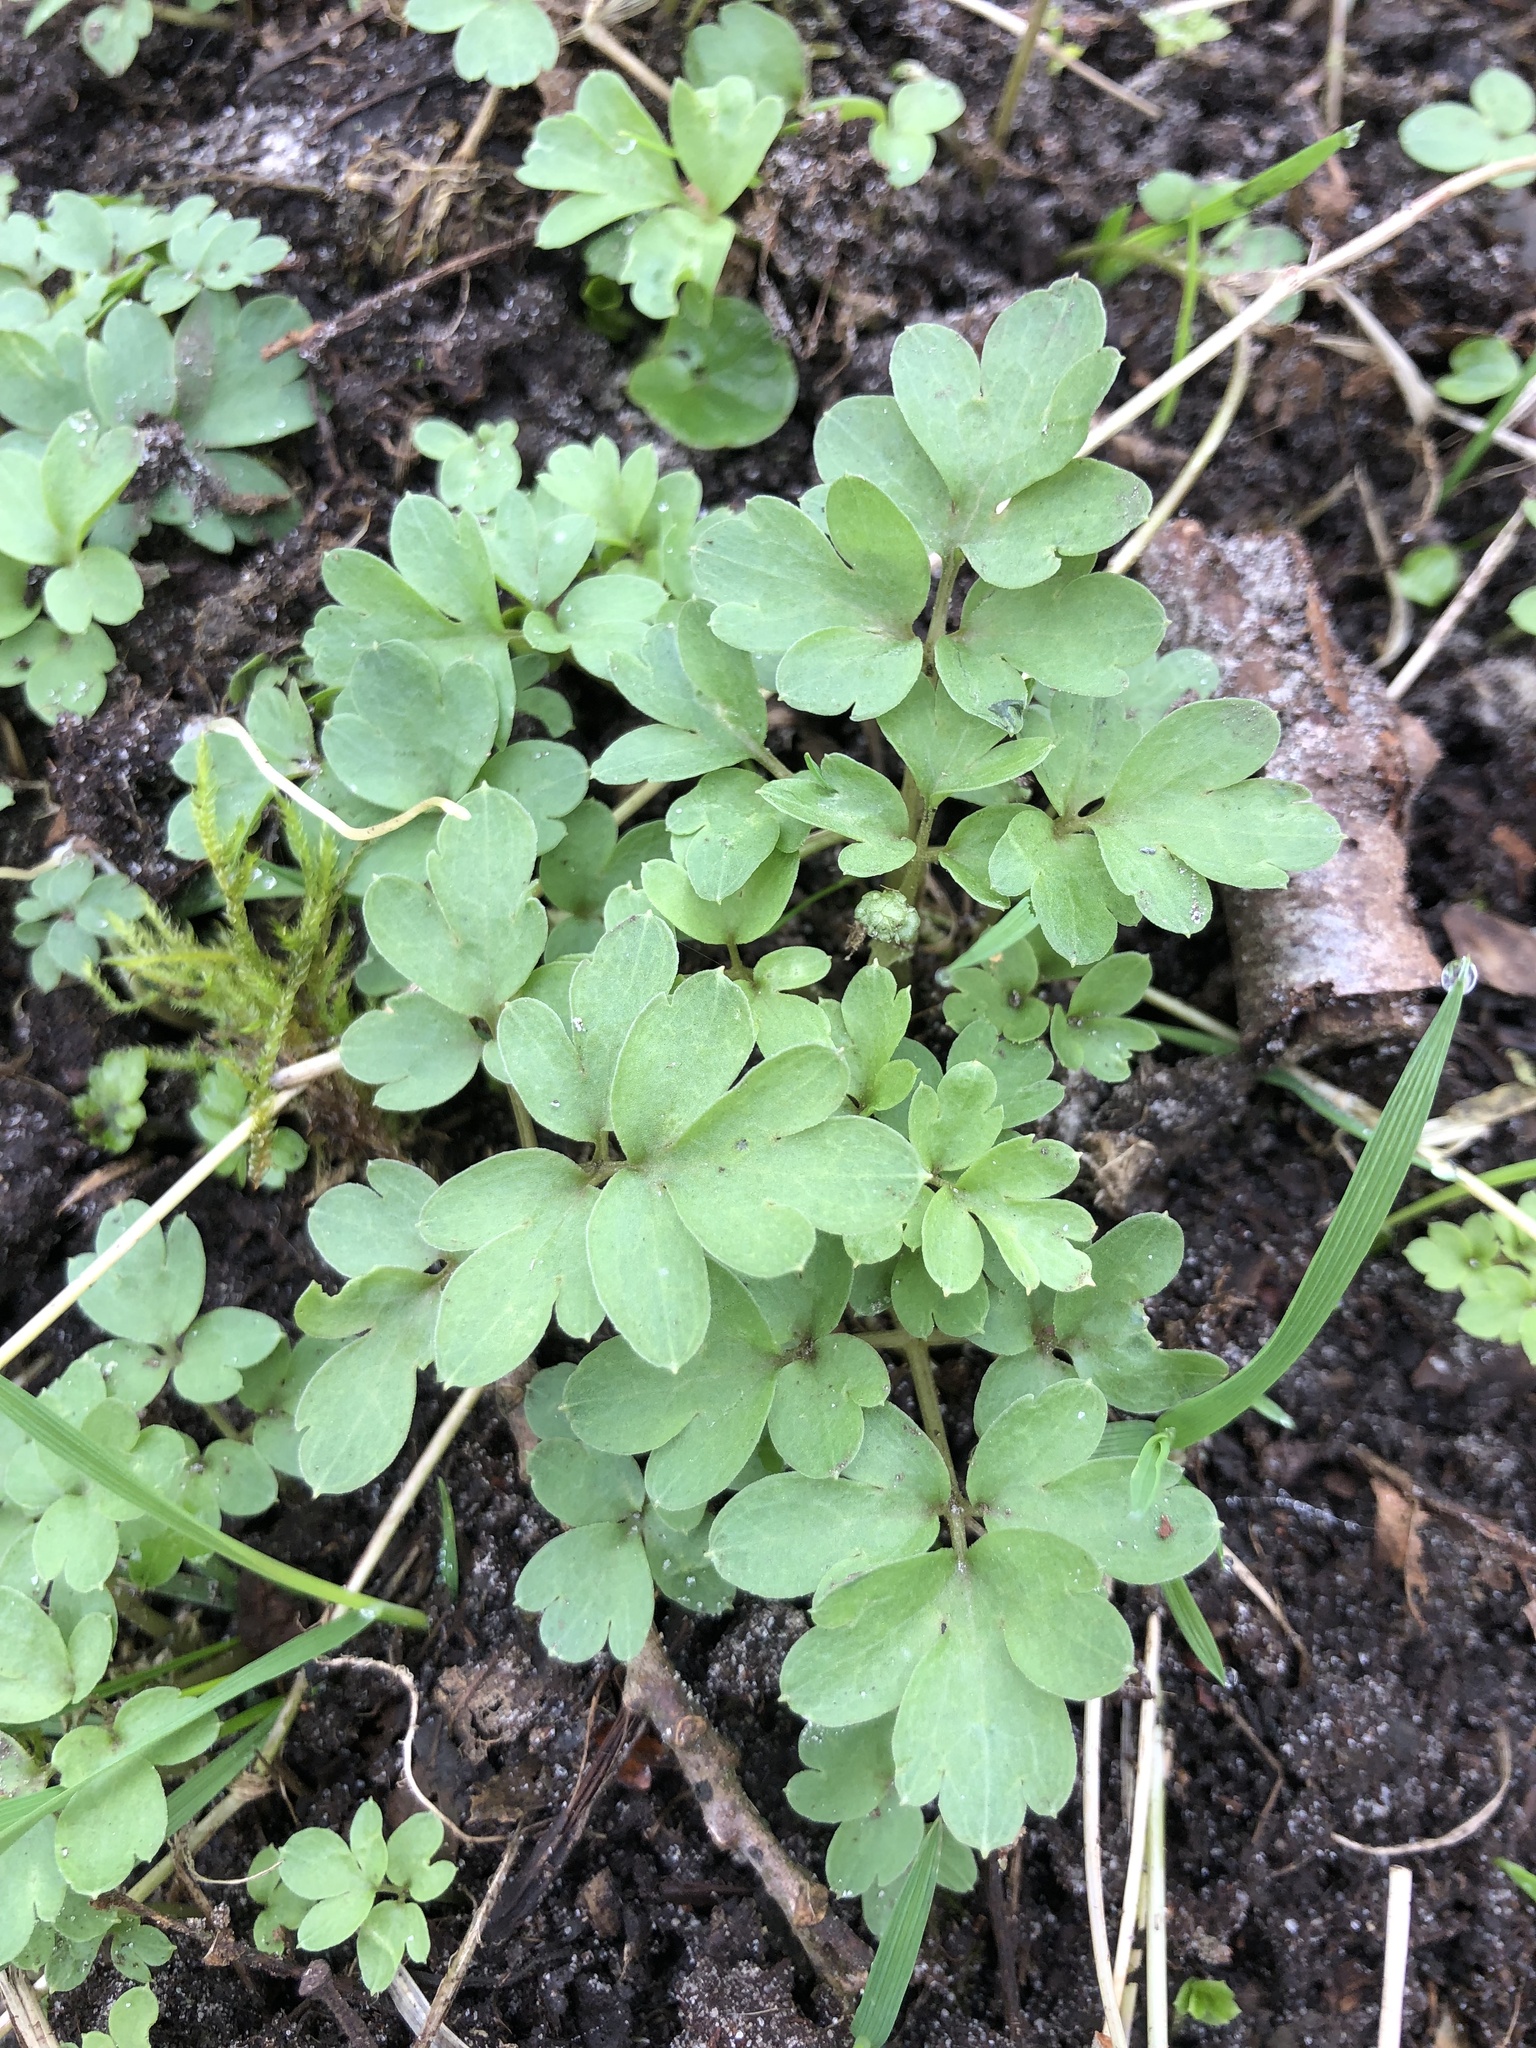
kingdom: Plantae
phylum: Tracheophyta
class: Magnoliopsida
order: Dipsacales
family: Viburnaceae
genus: Adoxa
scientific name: Adoxa moschatellina
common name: Moschatel
